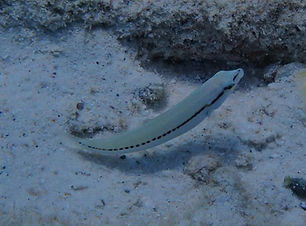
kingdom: Animalia
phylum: Chordata
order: Perciformes
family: Labridae
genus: Halichoeres
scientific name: Halichoeres bivittatus
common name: Slippery dick
